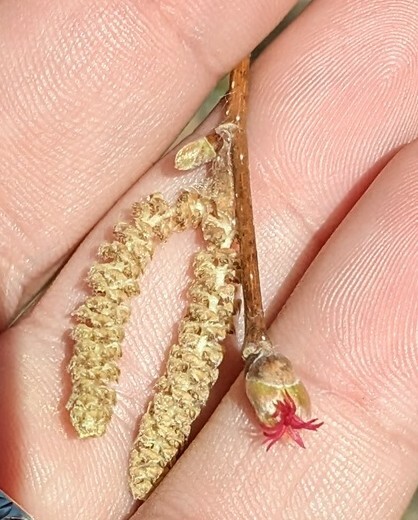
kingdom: Plantae
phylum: Tracheophyta
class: Magnoliopsida
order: Fagales
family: Betulaceae
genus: Corylus
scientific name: Corylus cornuta
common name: Beaked hazel
